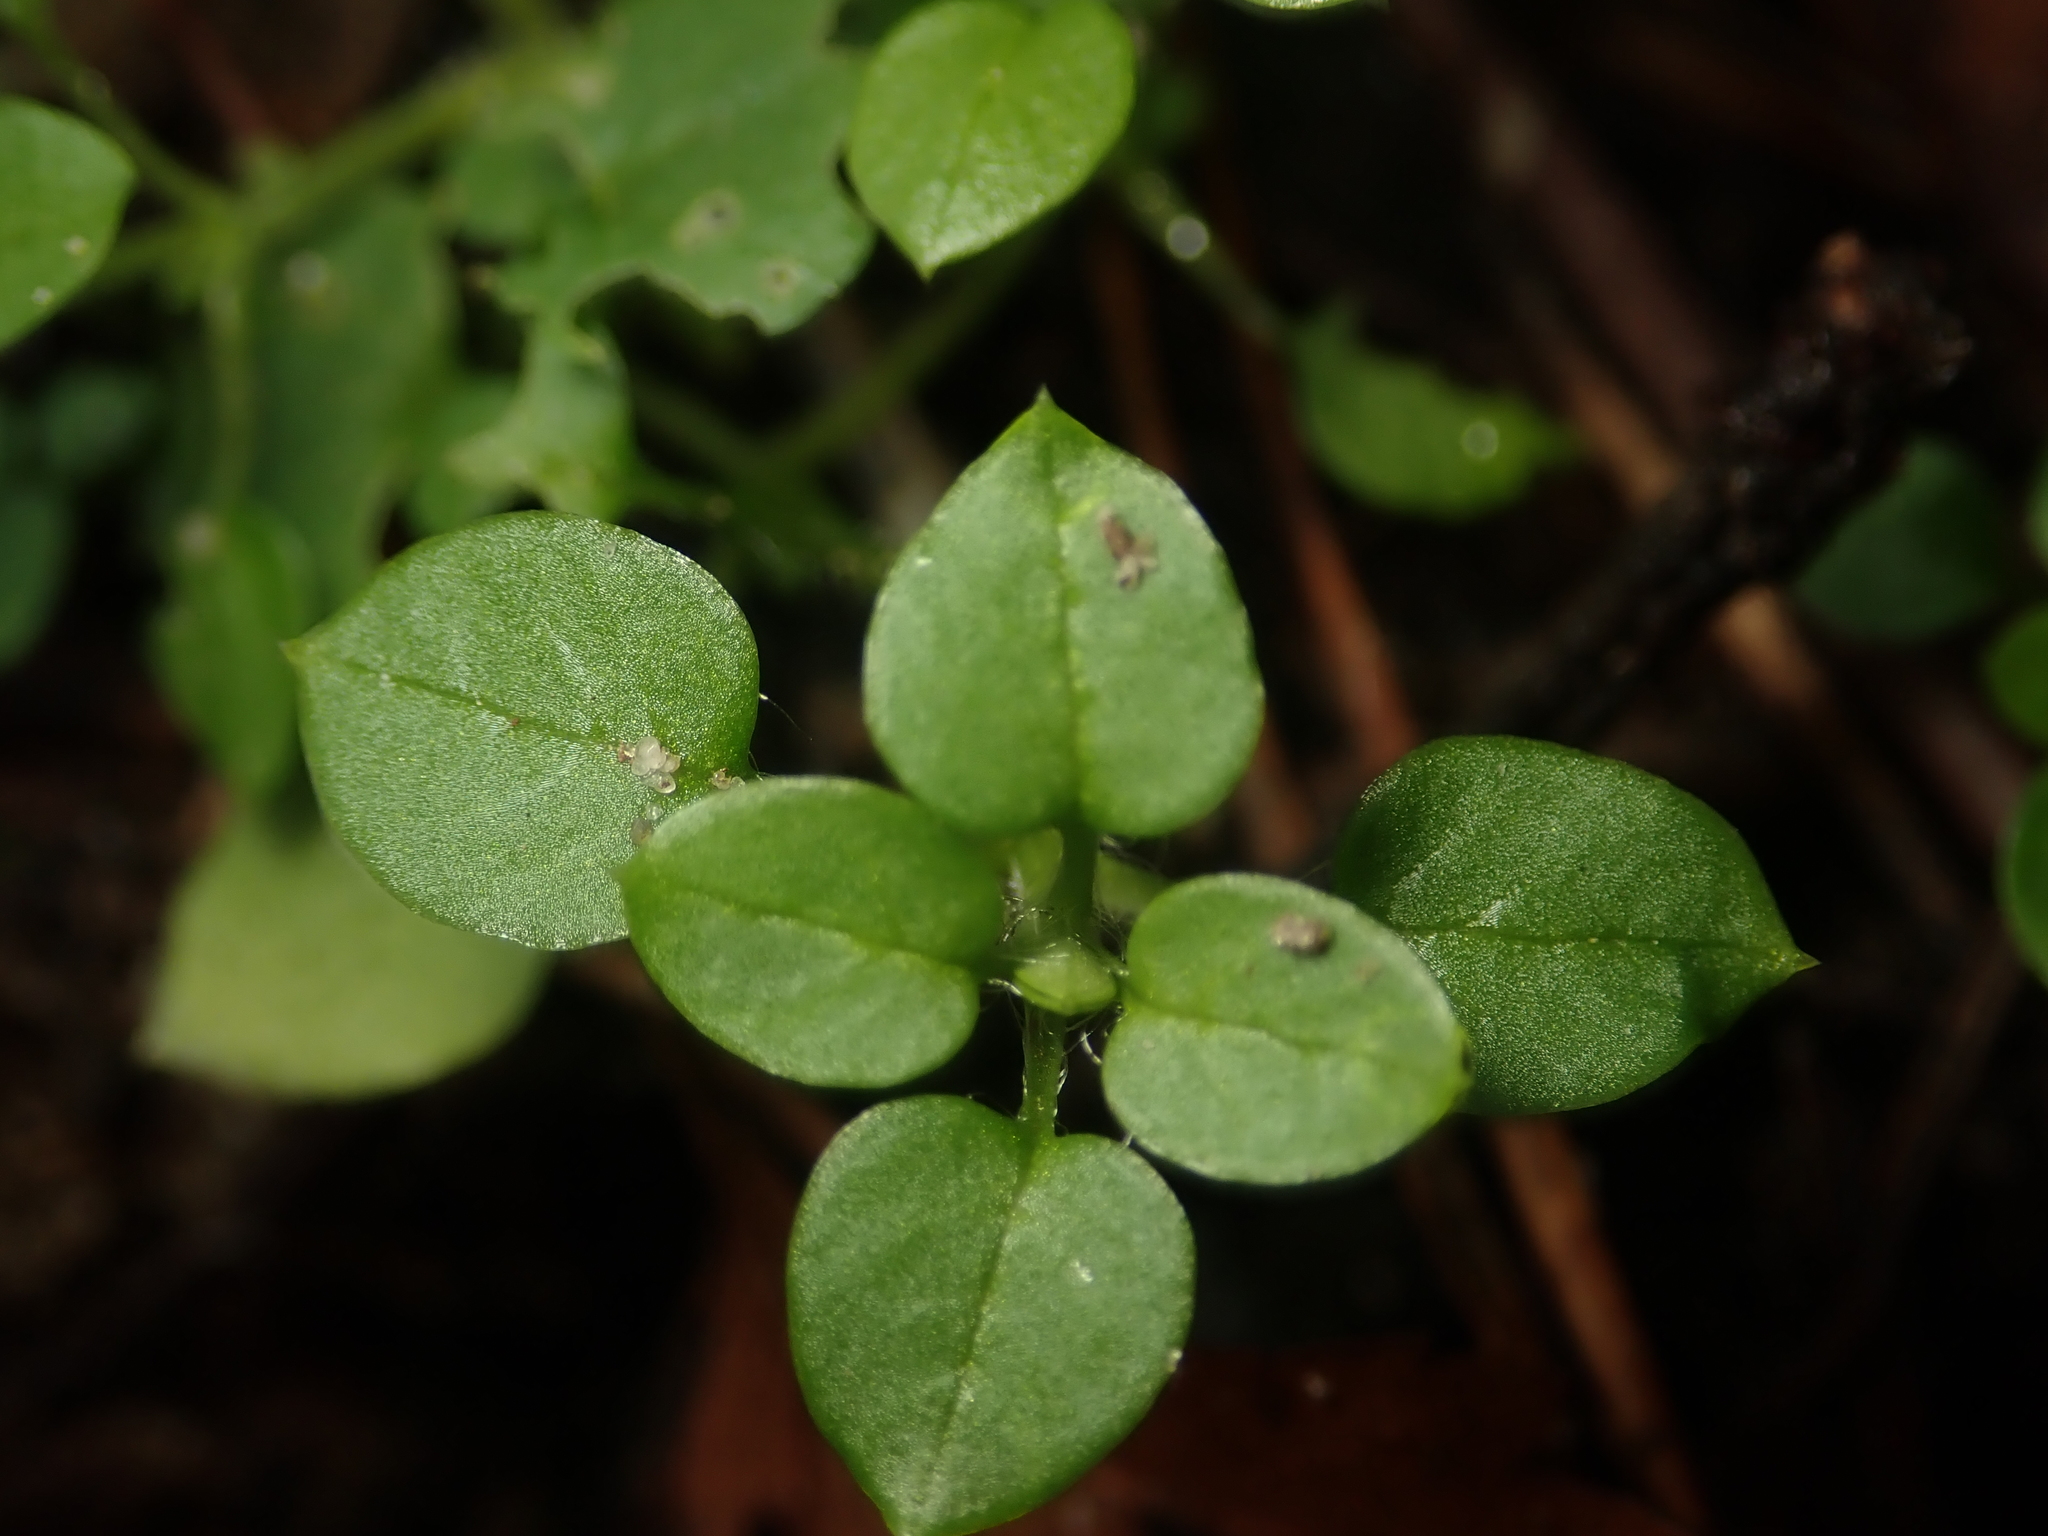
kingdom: Plantae
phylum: Tracheophyta
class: Magnoliopsida
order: Caryophyllales
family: Caryophyllaceae
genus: Stellaria
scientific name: Stellaria media
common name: Common chickweed
